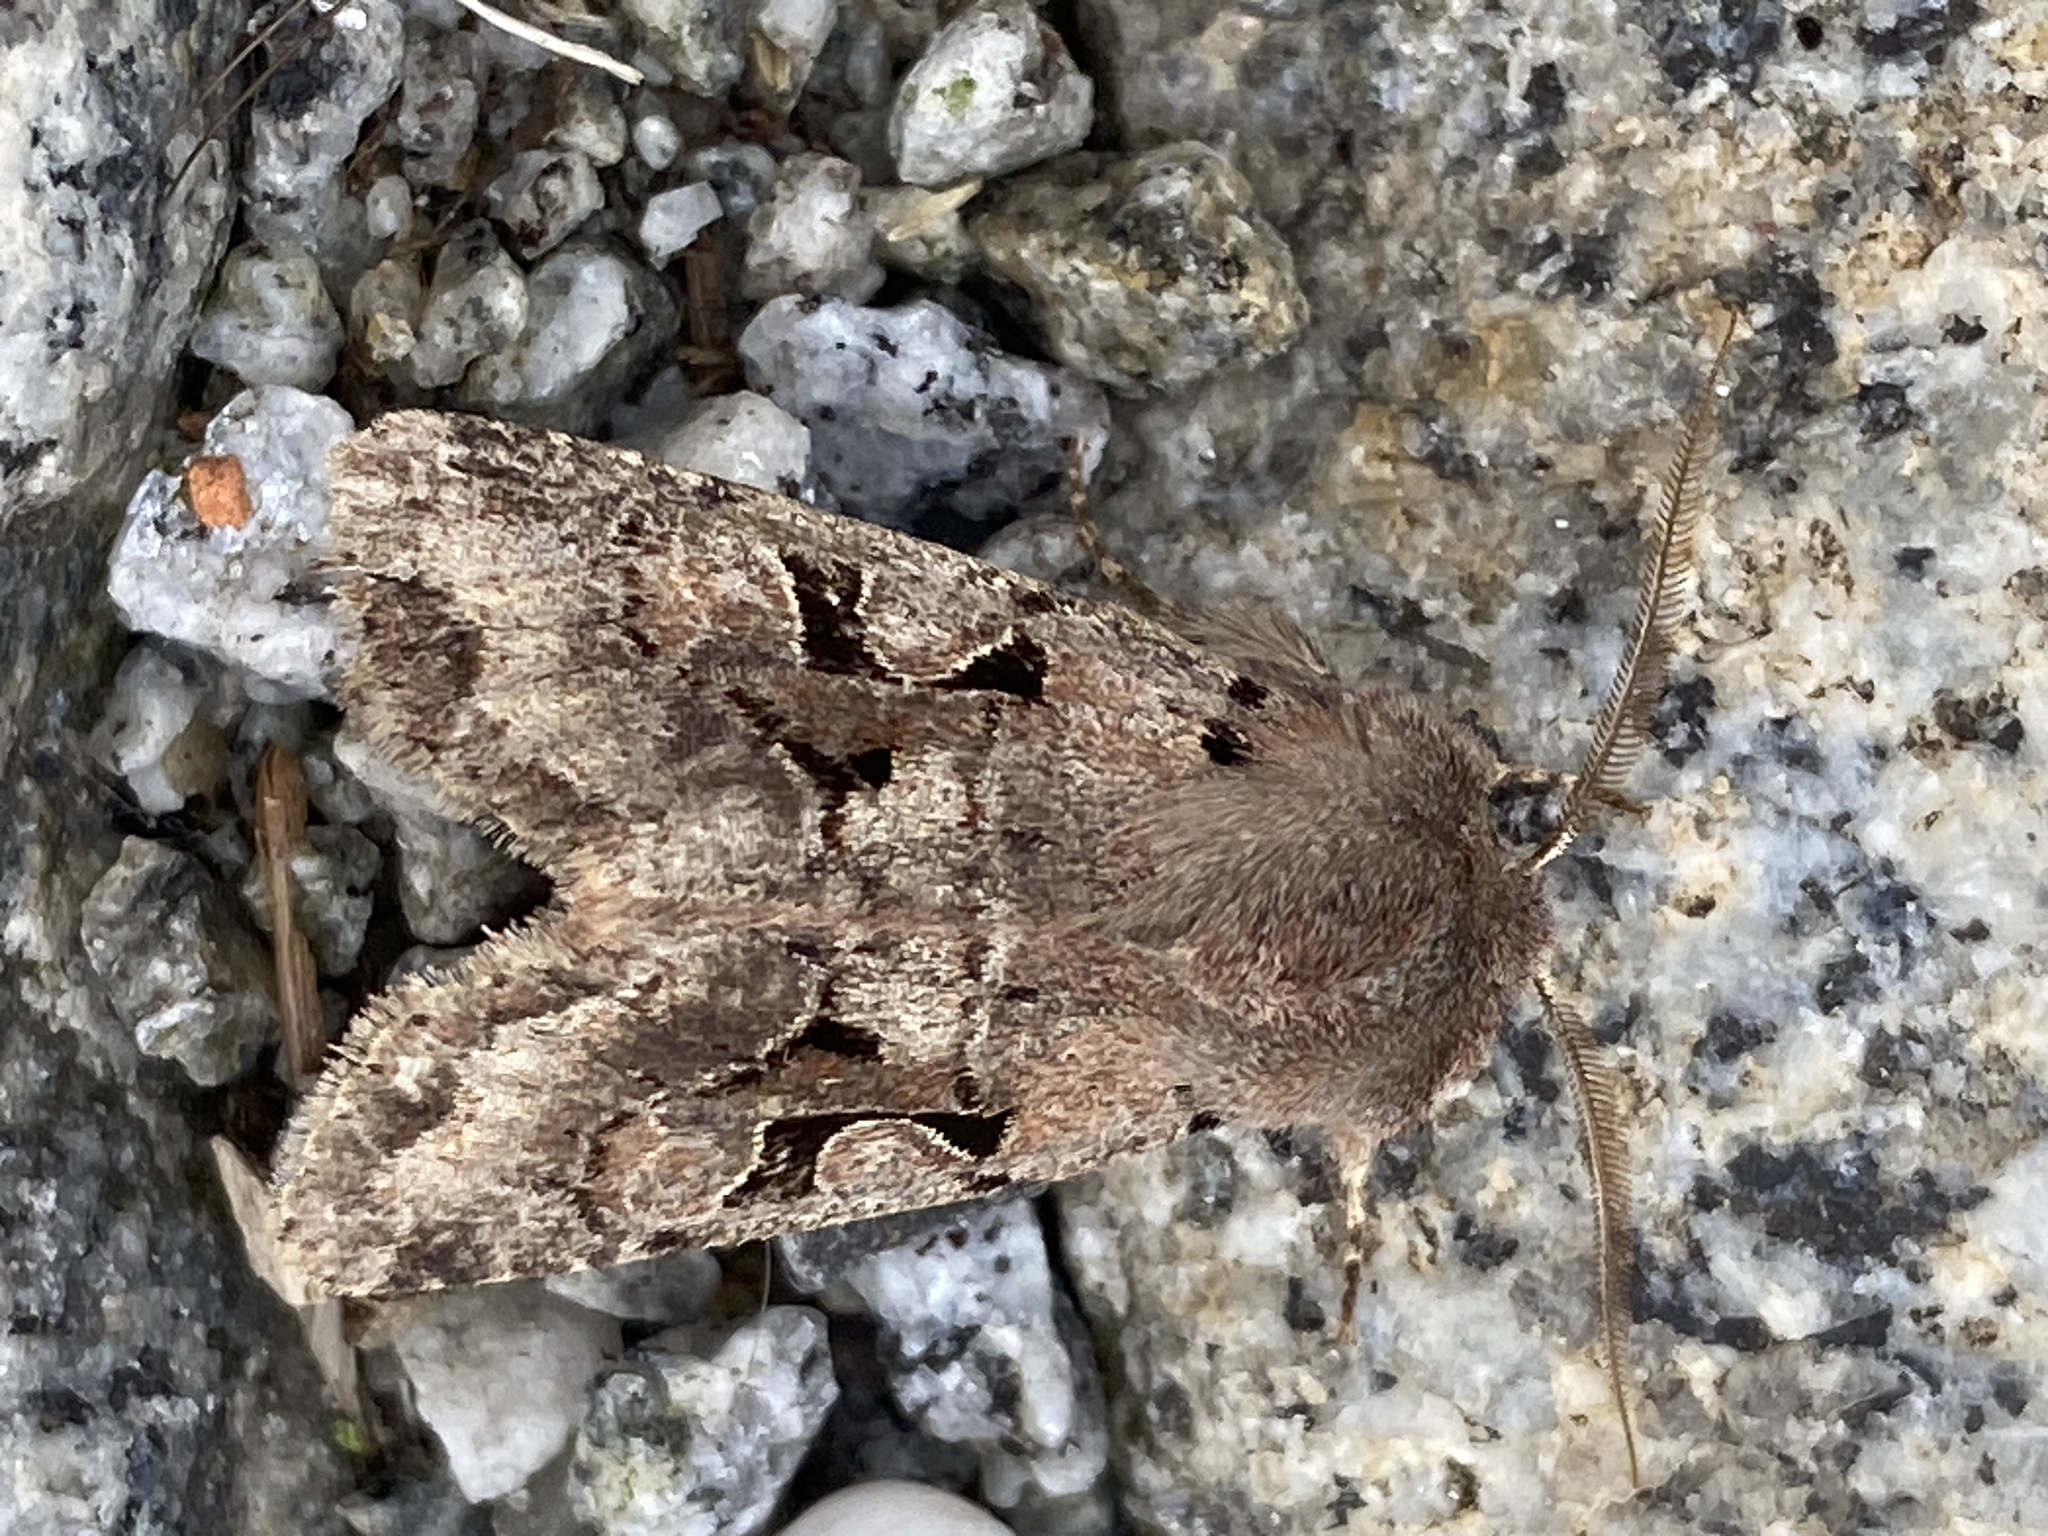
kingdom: Animalia
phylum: Arthropoda
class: Insecta
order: Lepidoptera
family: Noctuidae
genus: Orthosia
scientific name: Orthosia gothica
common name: Hebrew character
